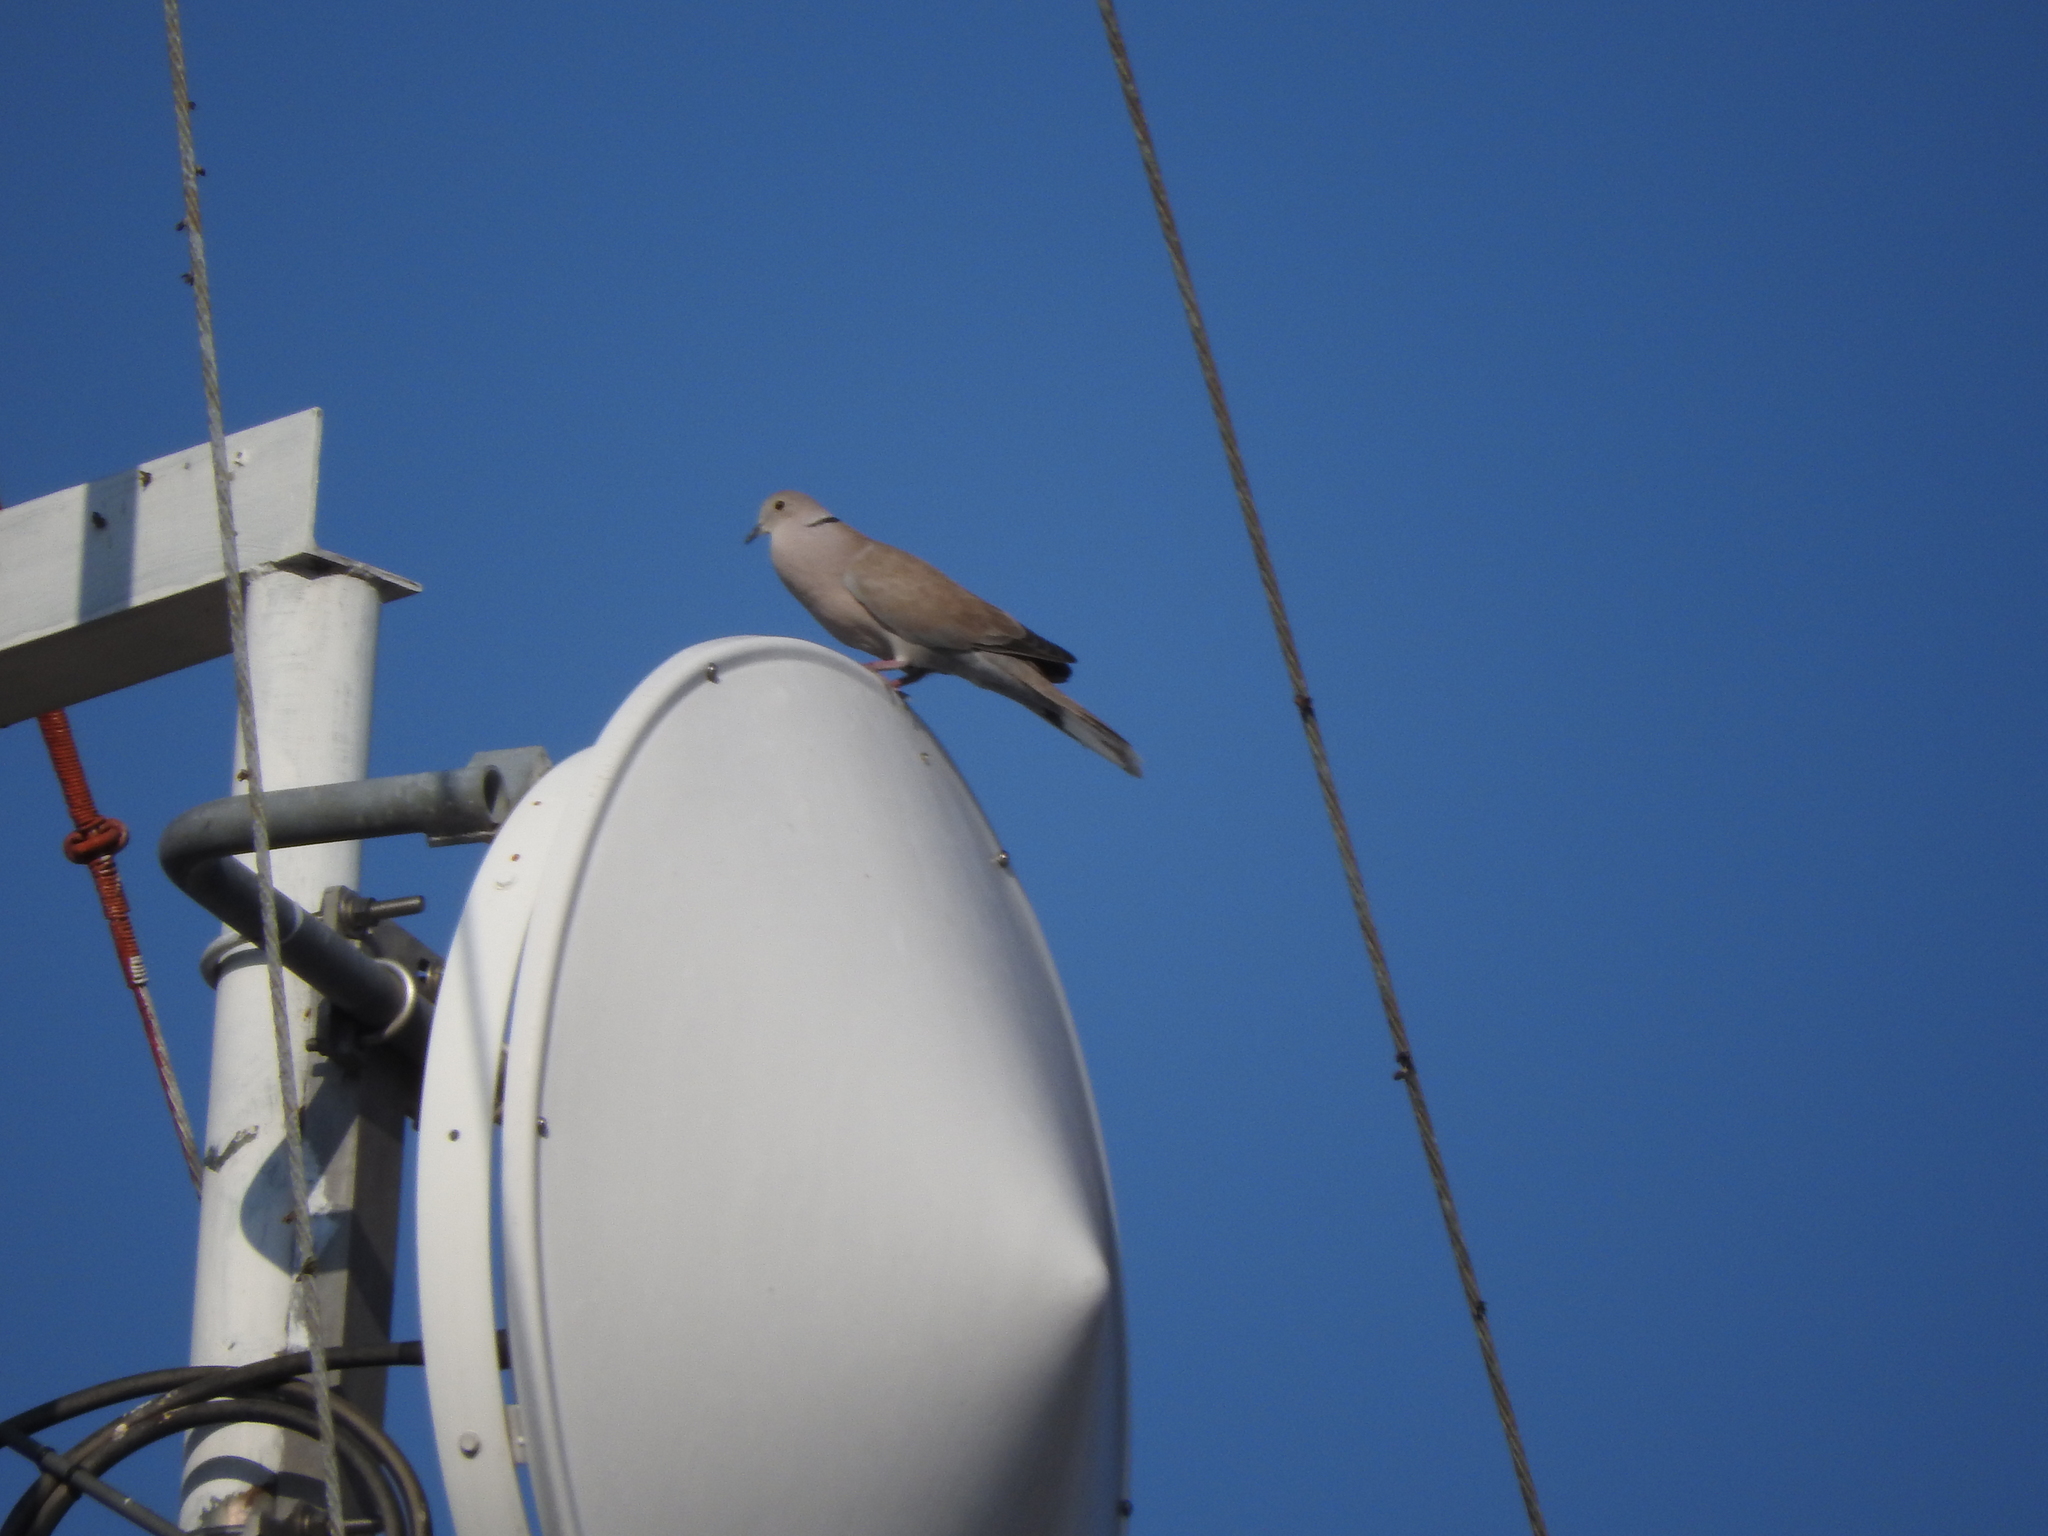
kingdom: Animalia
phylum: Chordata
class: Aves
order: Columbiformes
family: Columbidae
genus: Streptopelia
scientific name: Streptopelia decaocto
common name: Eurasian collared dove
